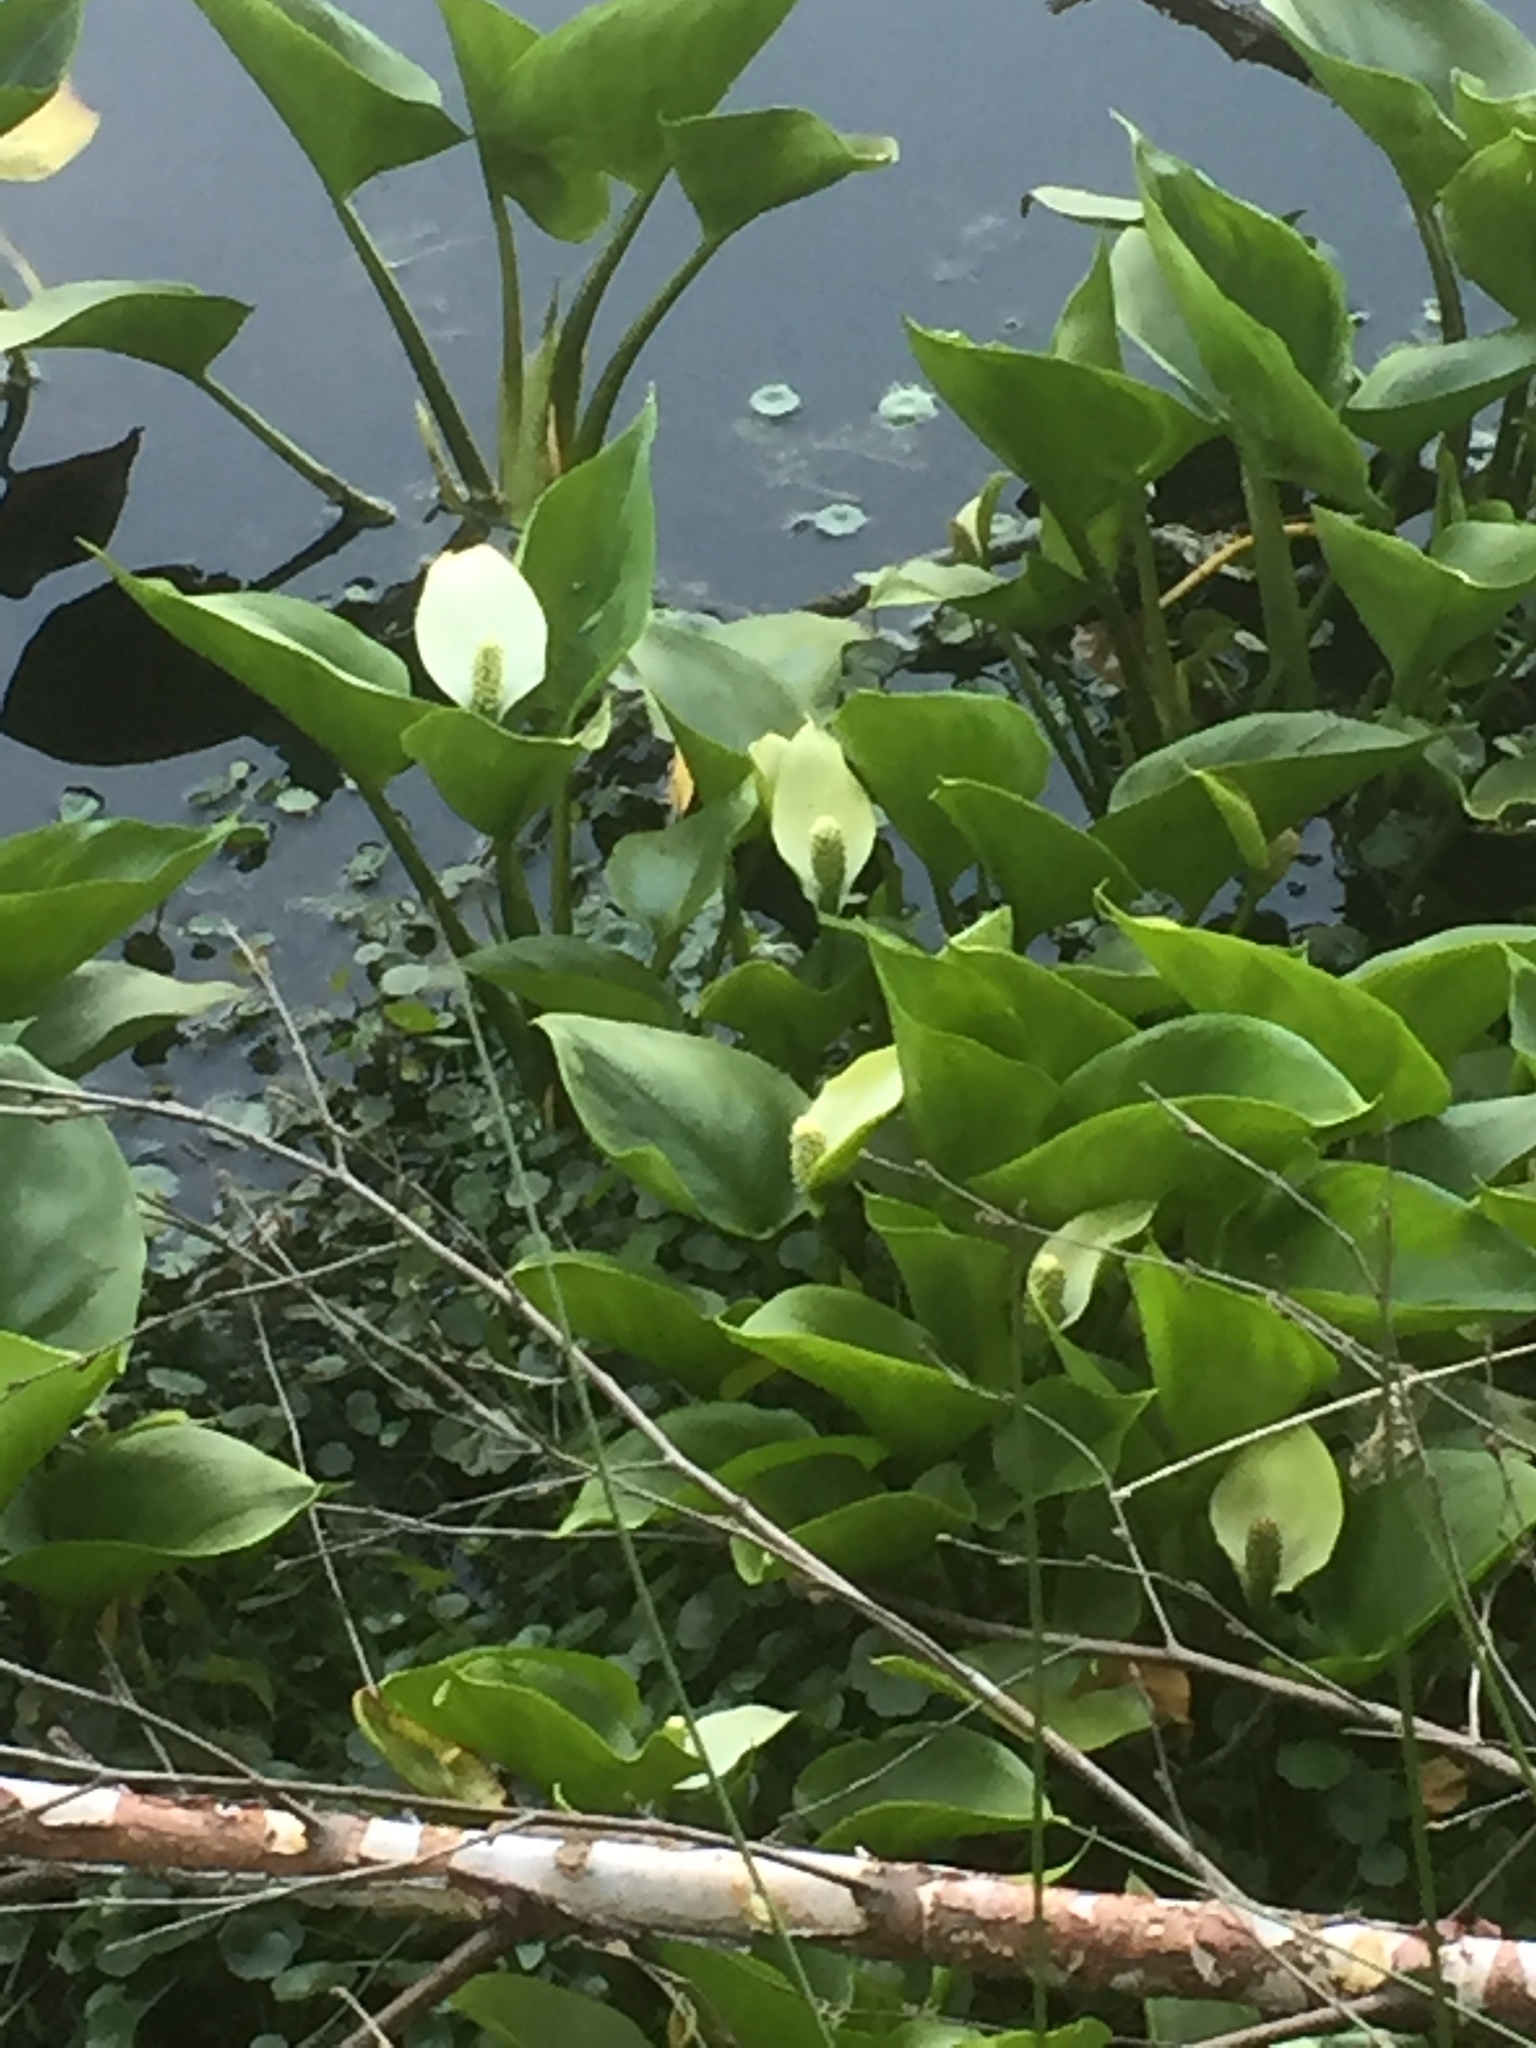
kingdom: Plantae
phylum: Tracheophyta
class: Liliopsida
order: Alismatales
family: Araceae
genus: Calla
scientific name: Calla palustris
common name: Bog arum
